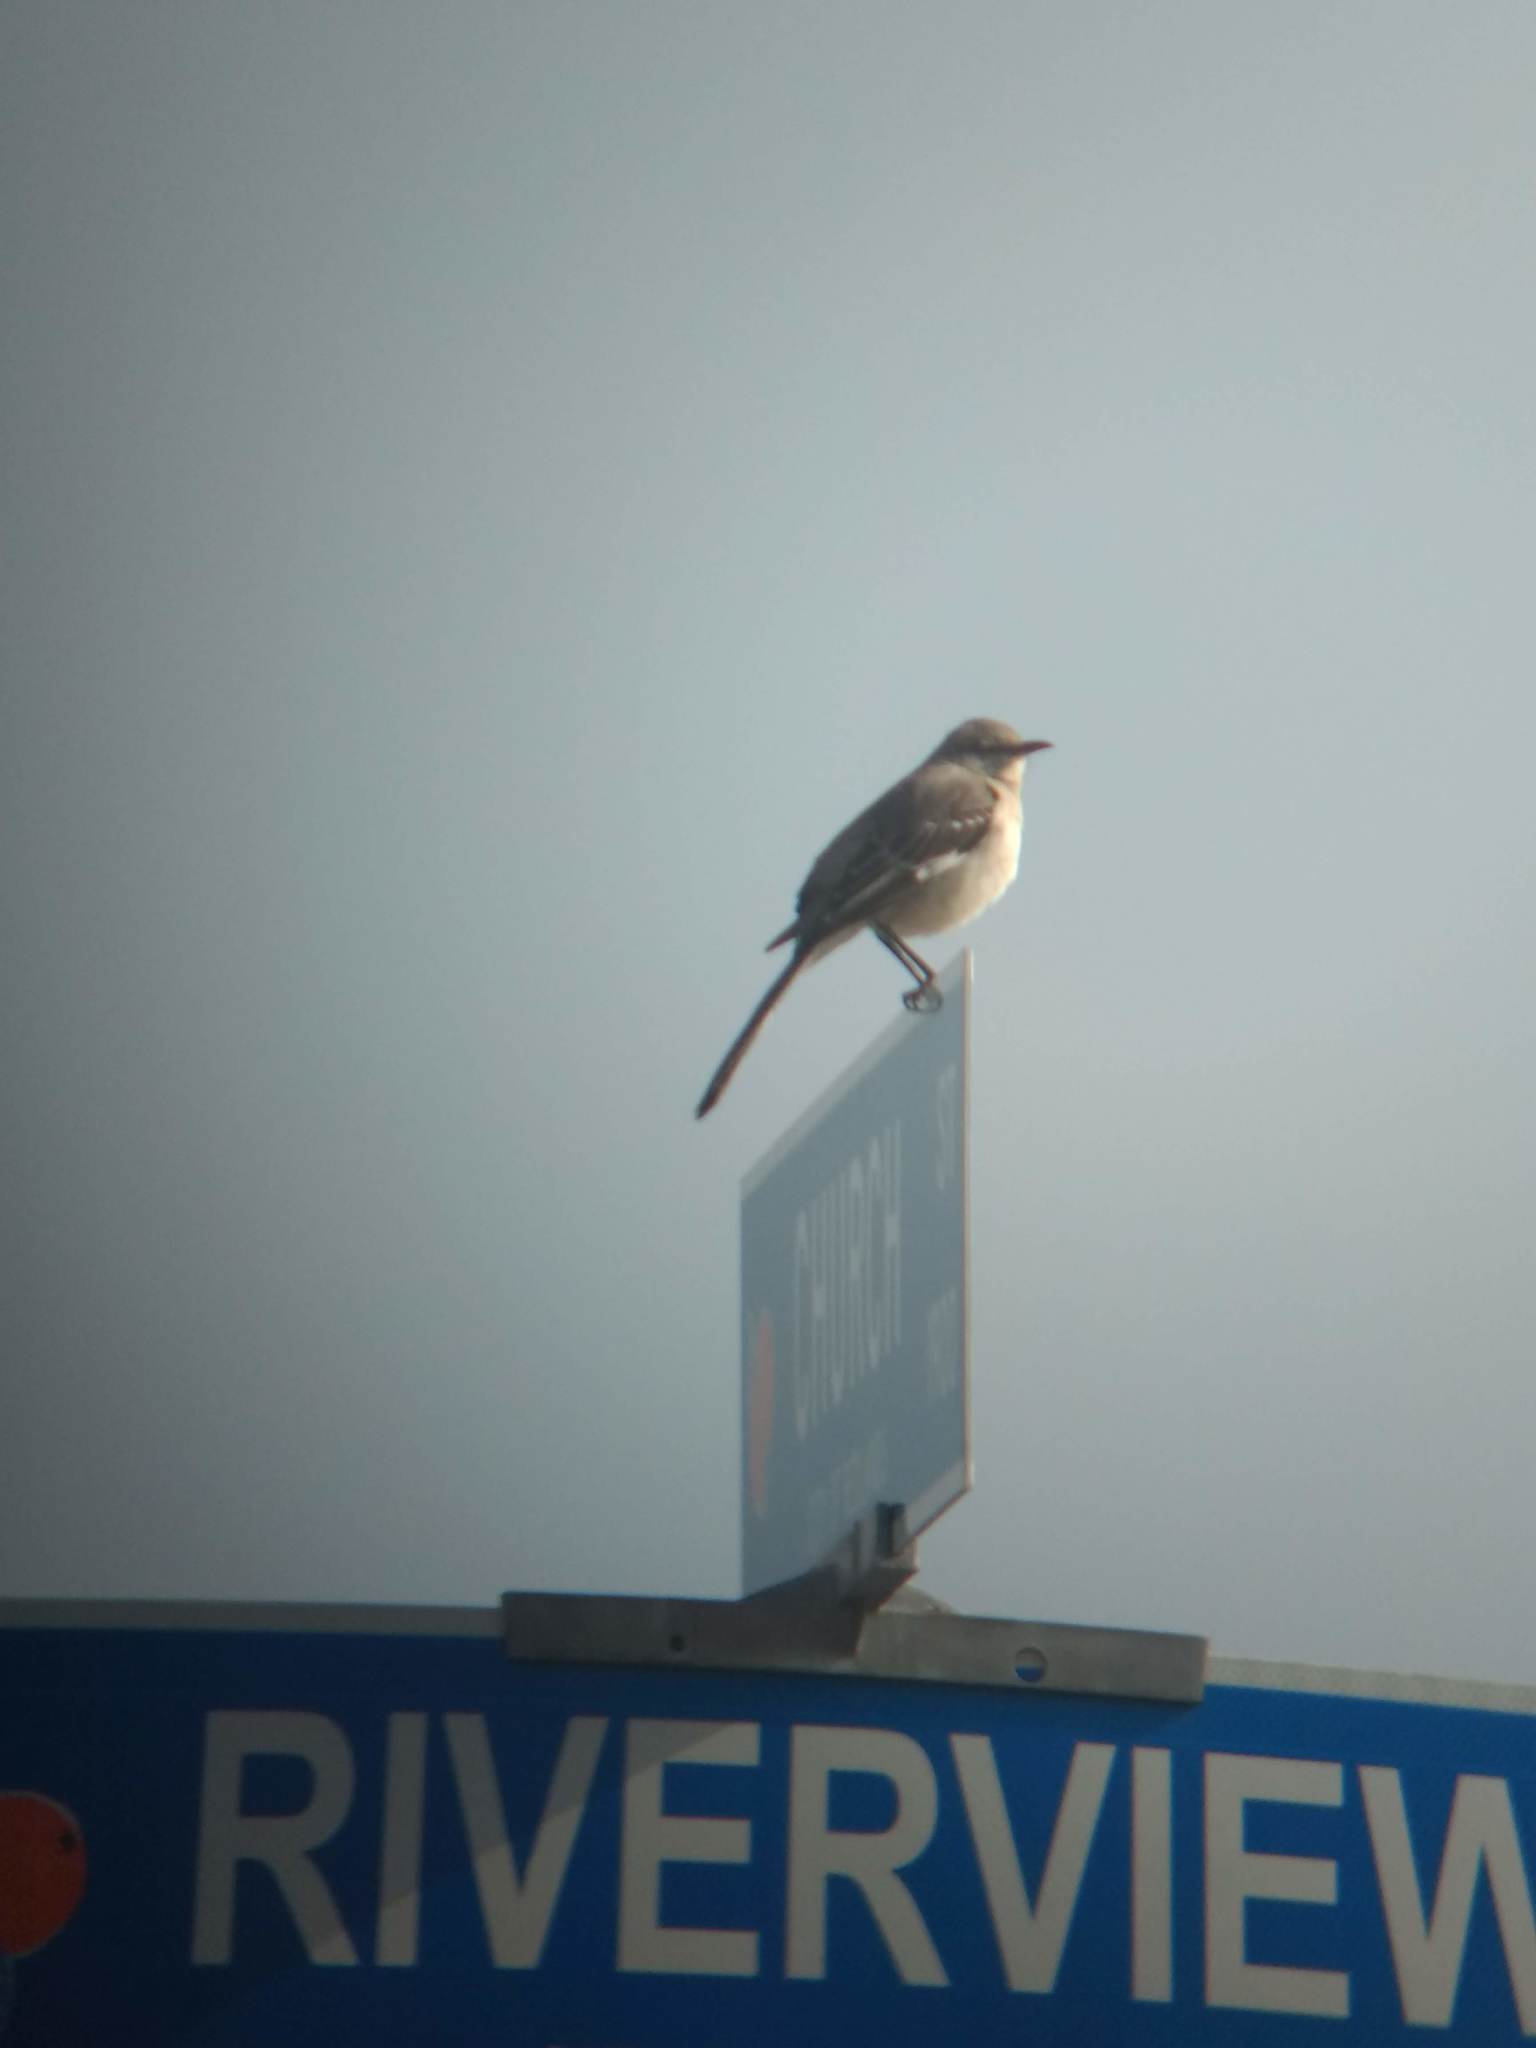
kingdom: Animalia
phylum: Chordata
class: Aves
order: Passeriformes
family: Mimidae
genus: Mimus
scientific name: Mimus polyglottos
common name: Northern mockingbird
